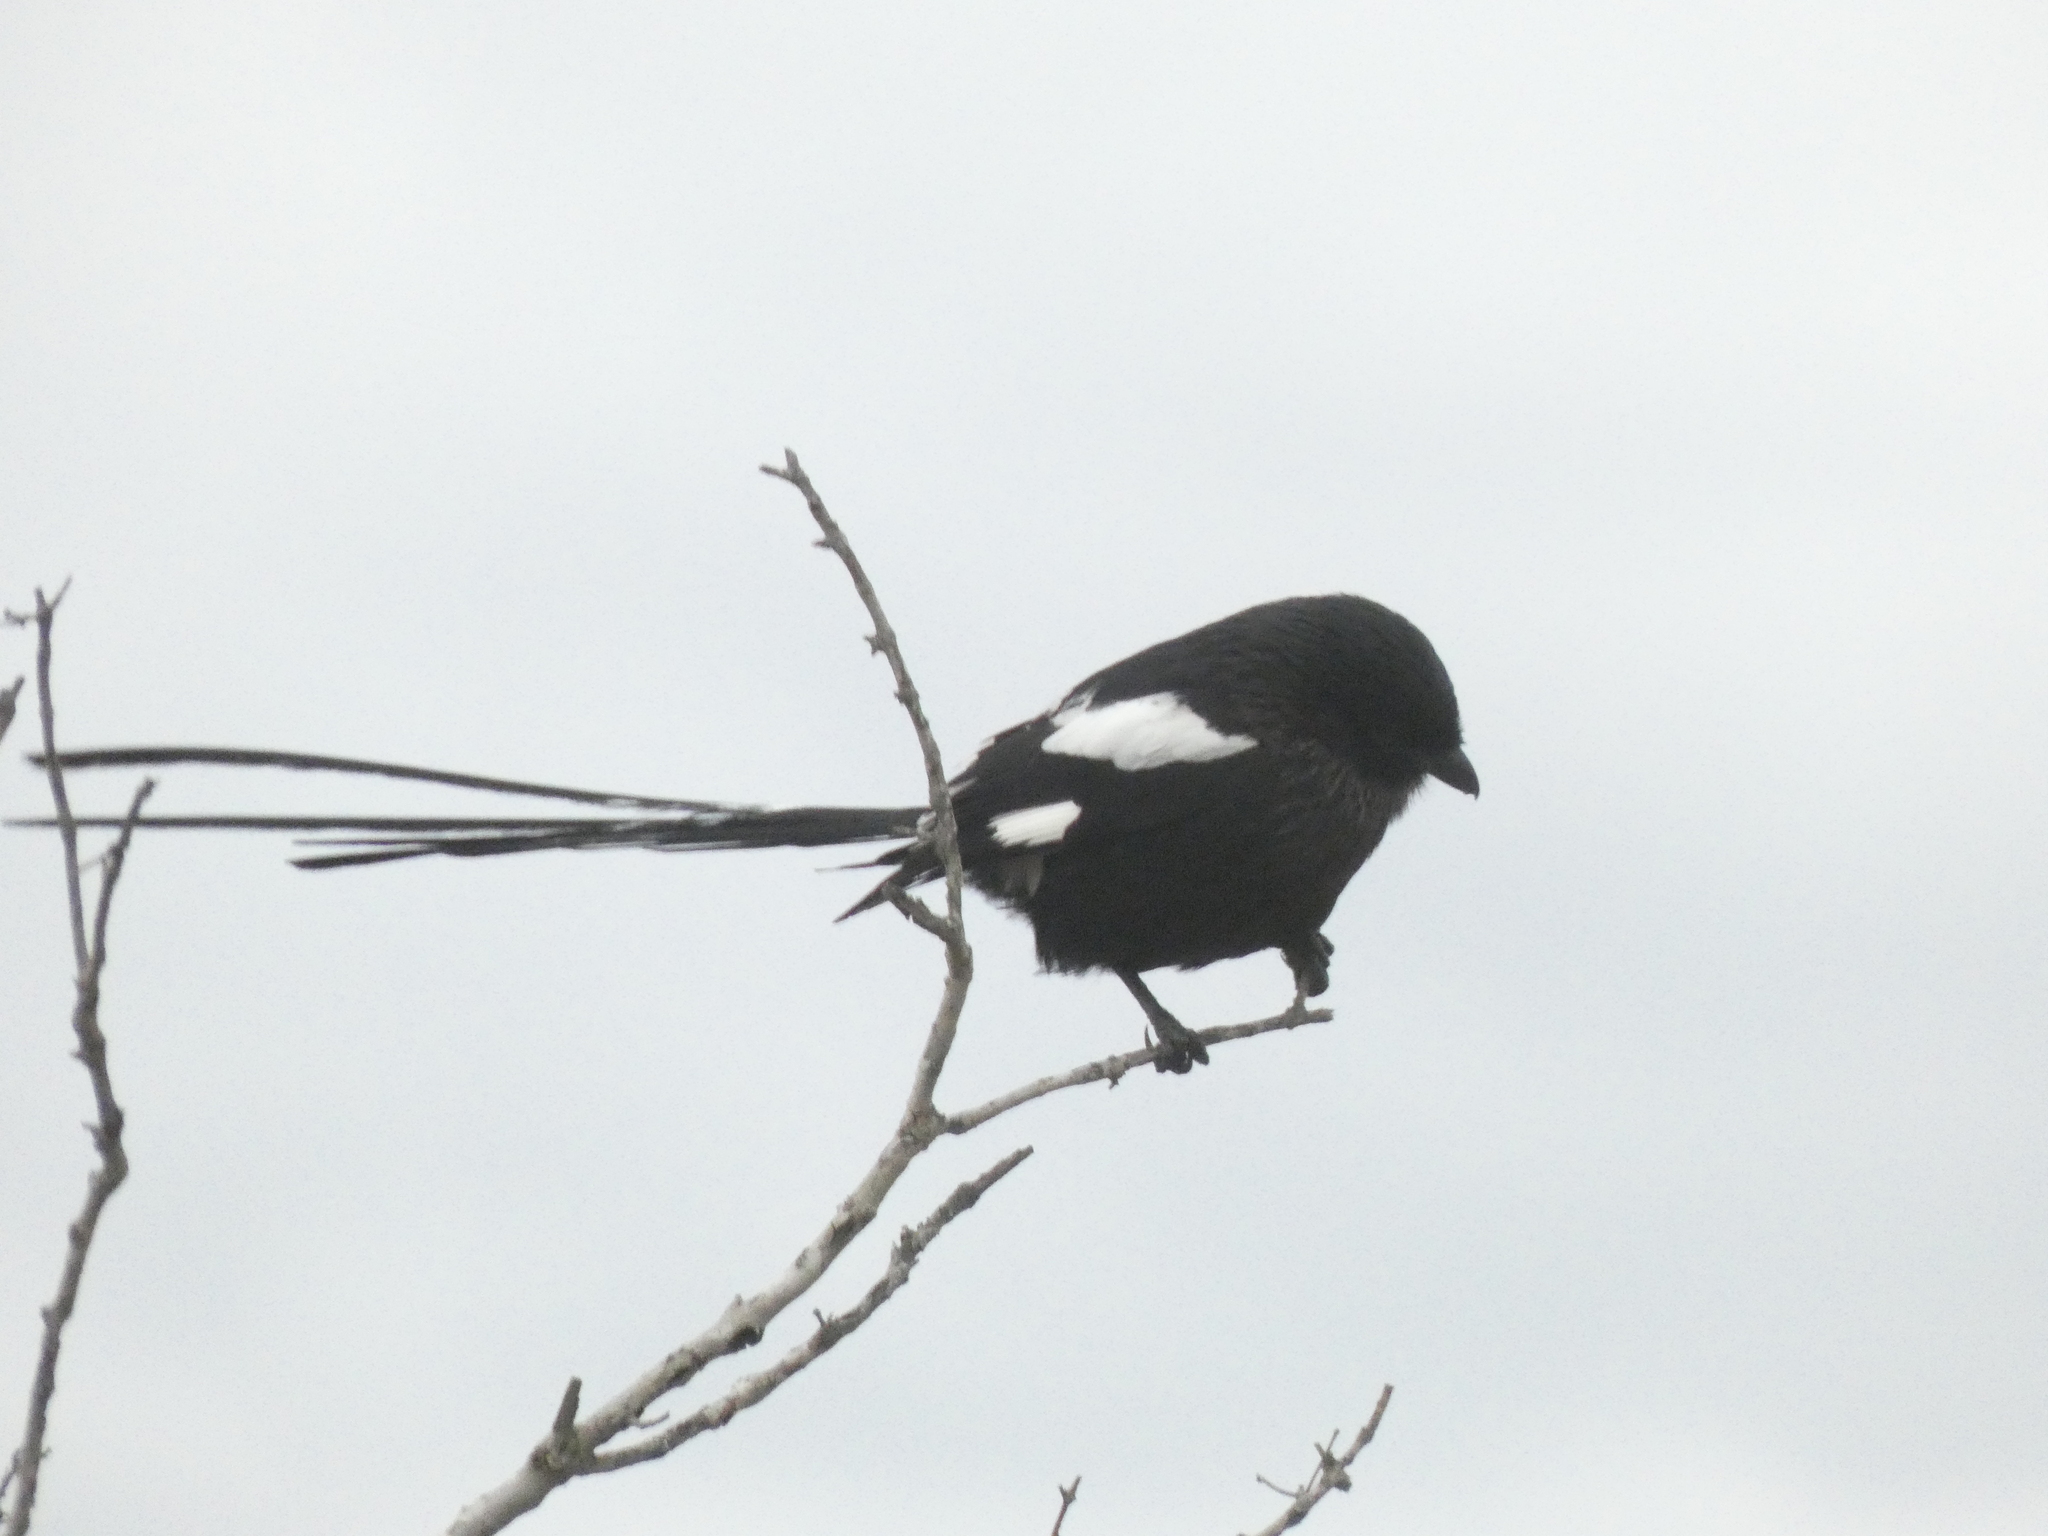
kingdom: Animalia
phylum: Chordata
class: Aves
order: Passeriformes
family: Laniidae
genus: Urolestes
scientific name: Urolestes melanoleucus
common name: Magpie shrike
